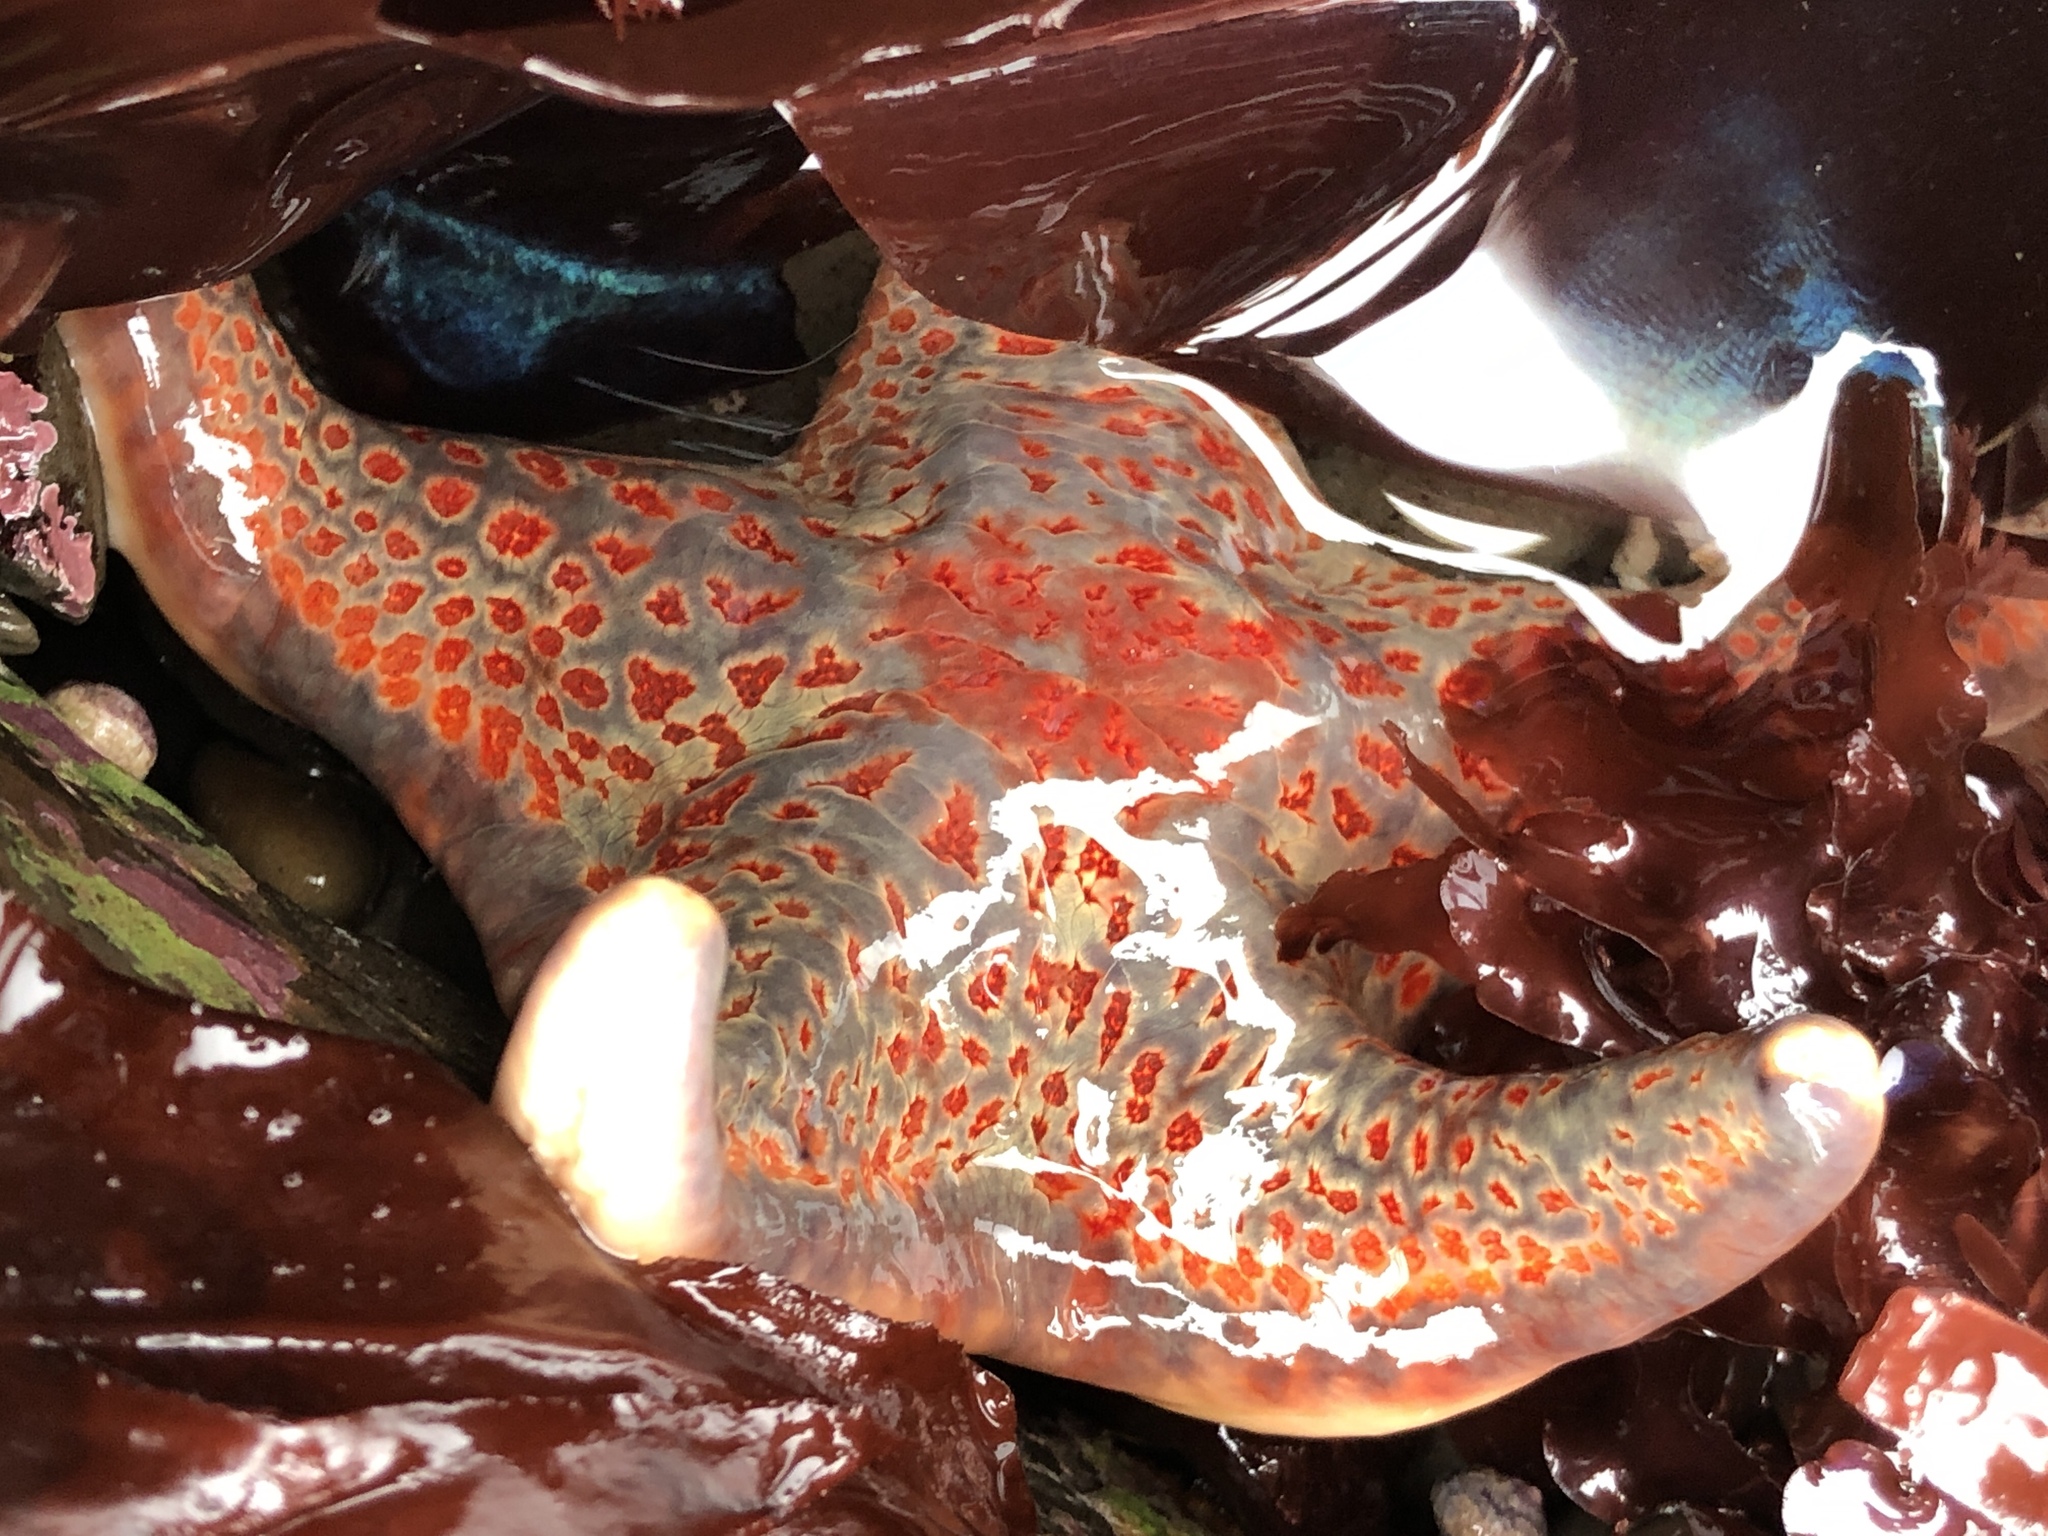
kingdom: Animalia
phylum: Echinodermata
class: Asteroidea
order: Valvatida
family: Asteropseidae
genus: Dermasterias
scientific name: Dermasterias imbricata
